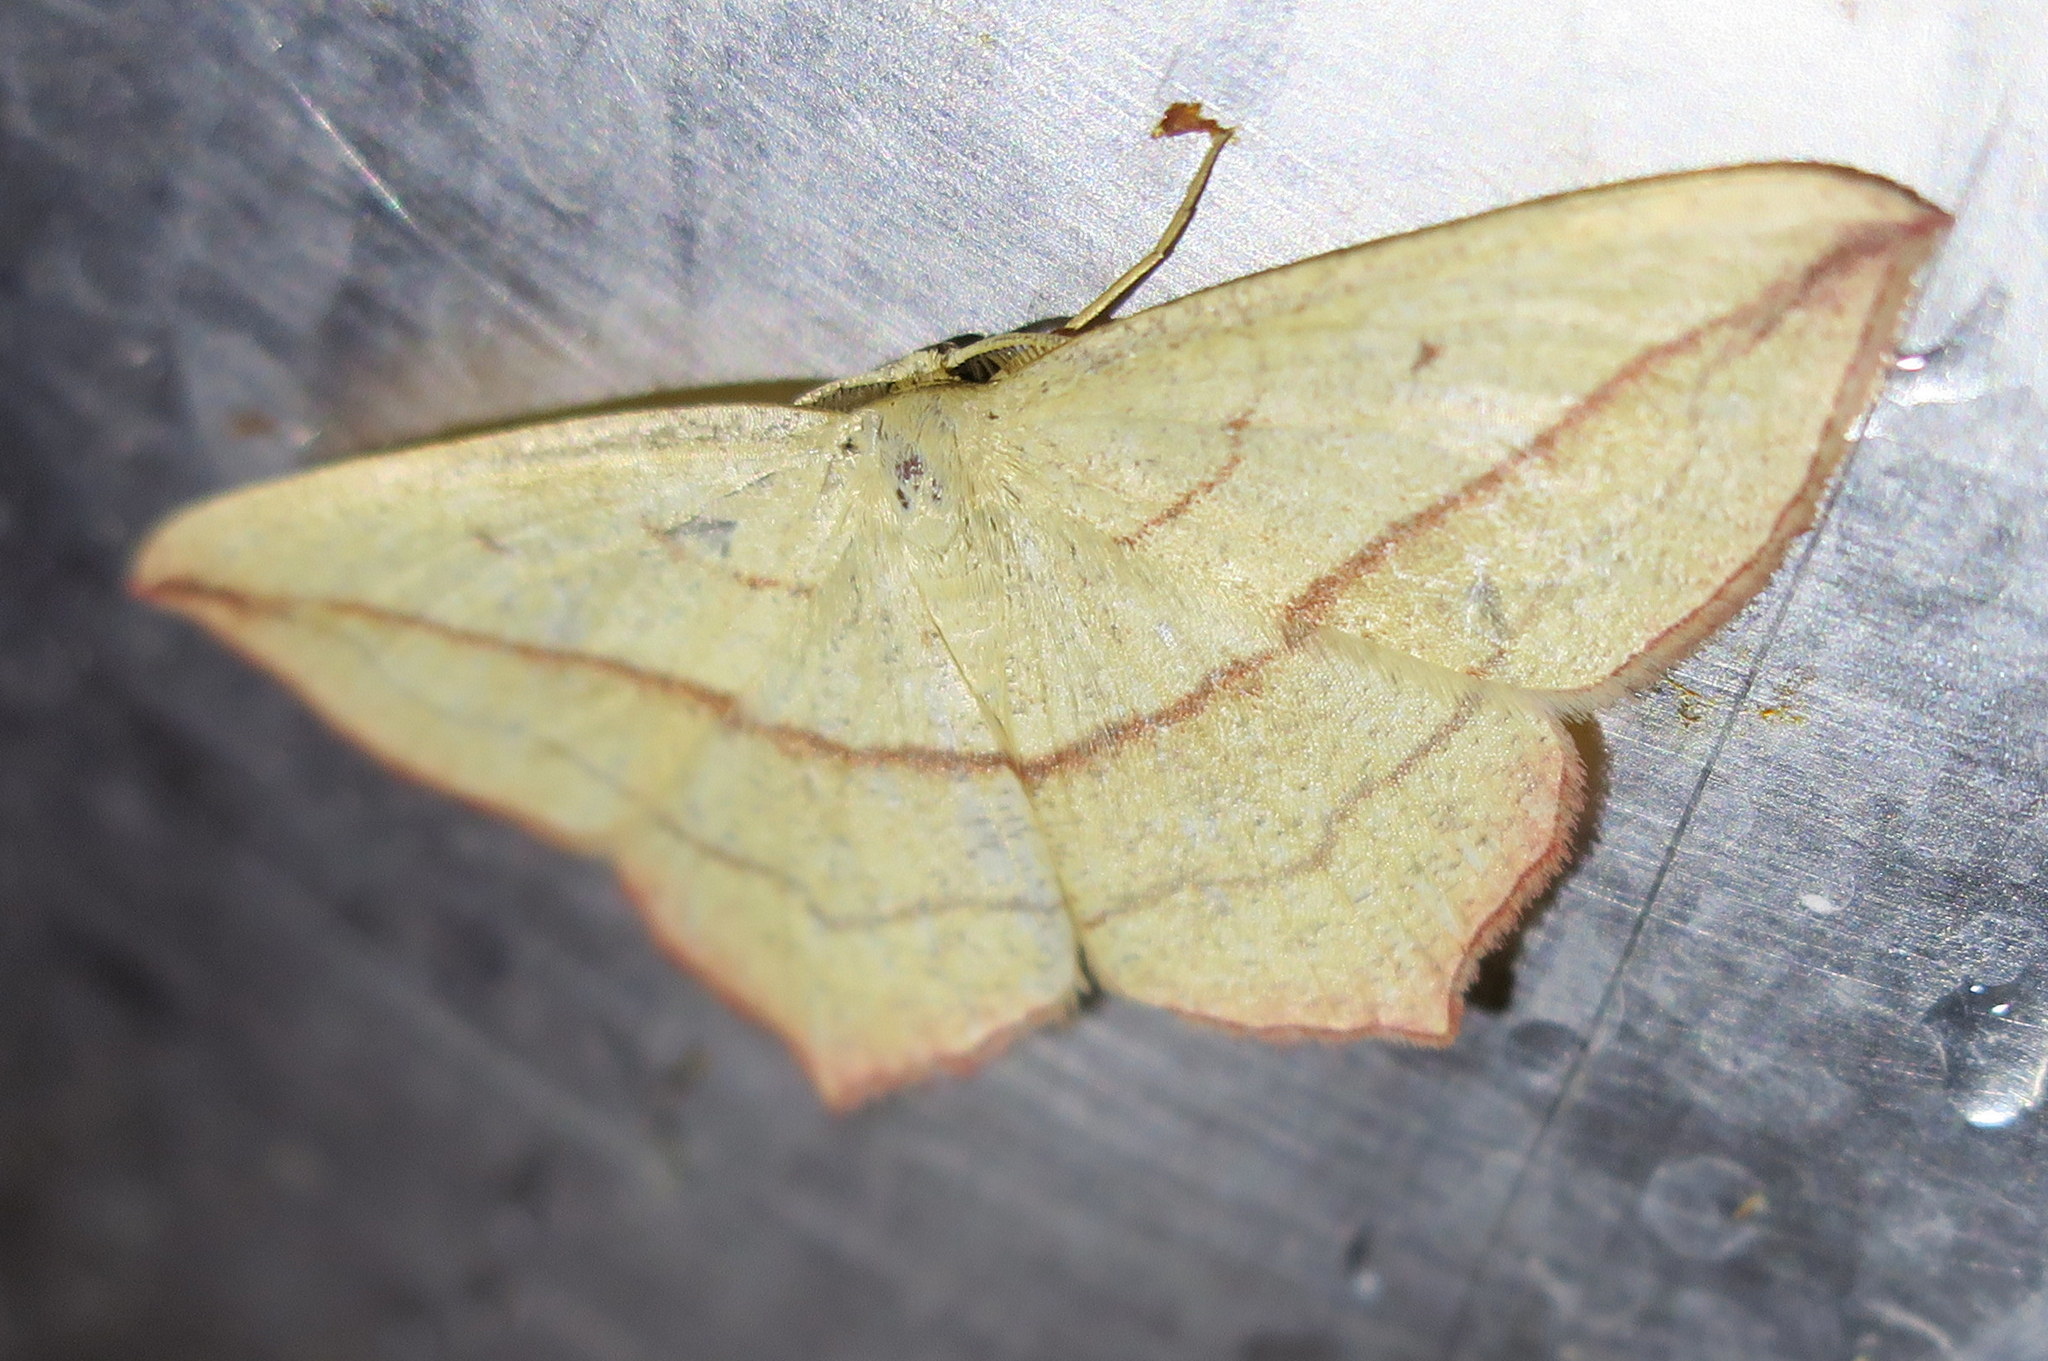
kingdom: Animalia
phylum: Arthropoda
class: Insecta
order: Lepidoptera
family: Geometridae
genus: Timandra
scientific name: Timandra comae
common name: Blood-vein
